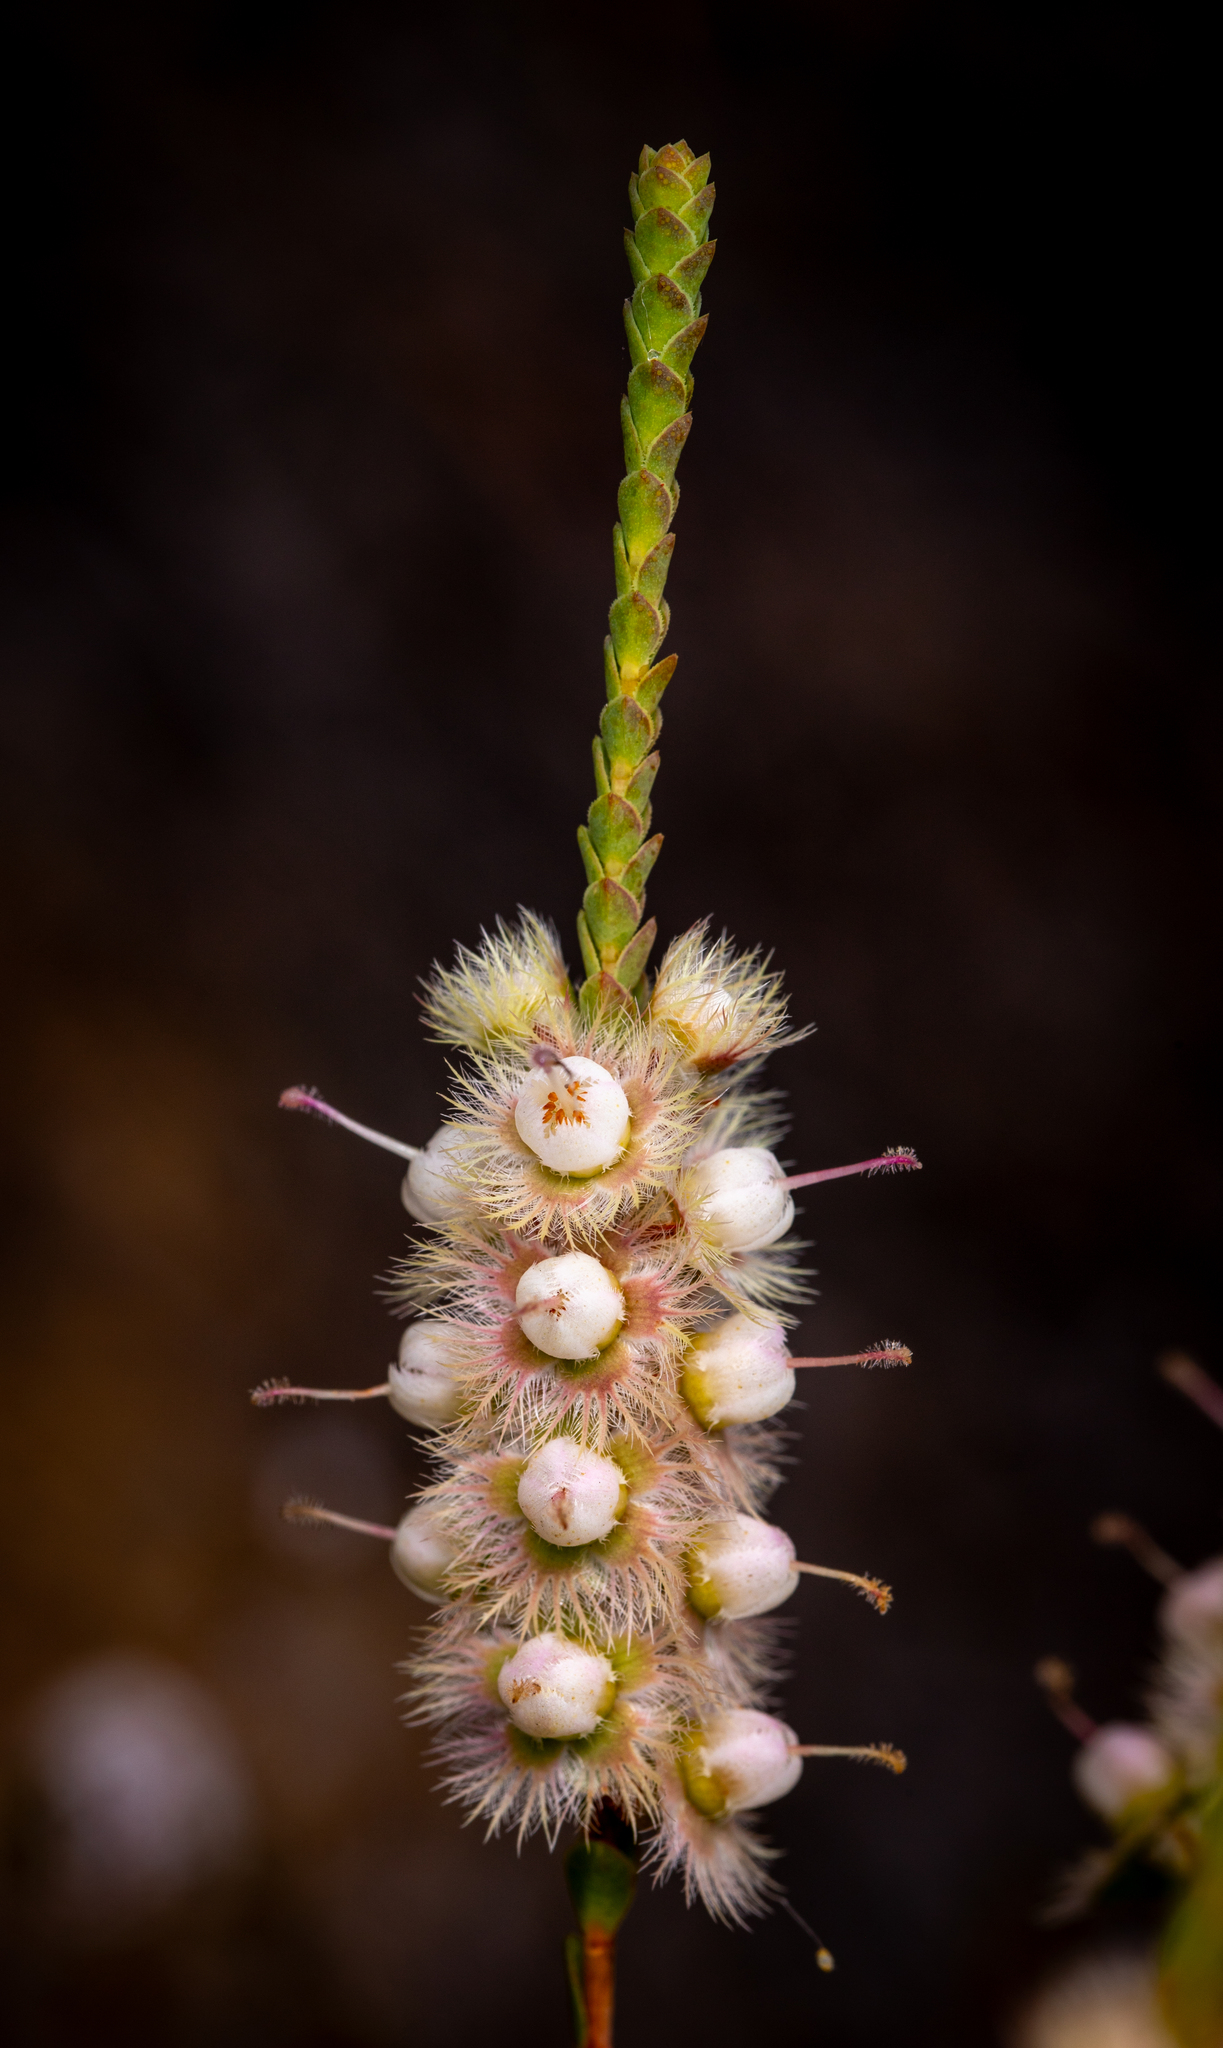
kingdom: Plantae
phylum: Tracheophyta
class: Magnoliopsida
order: Myrtales
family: Myrtaceae
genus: Verticordia
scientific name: Verticordia spicata
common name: Spike feather-flower
